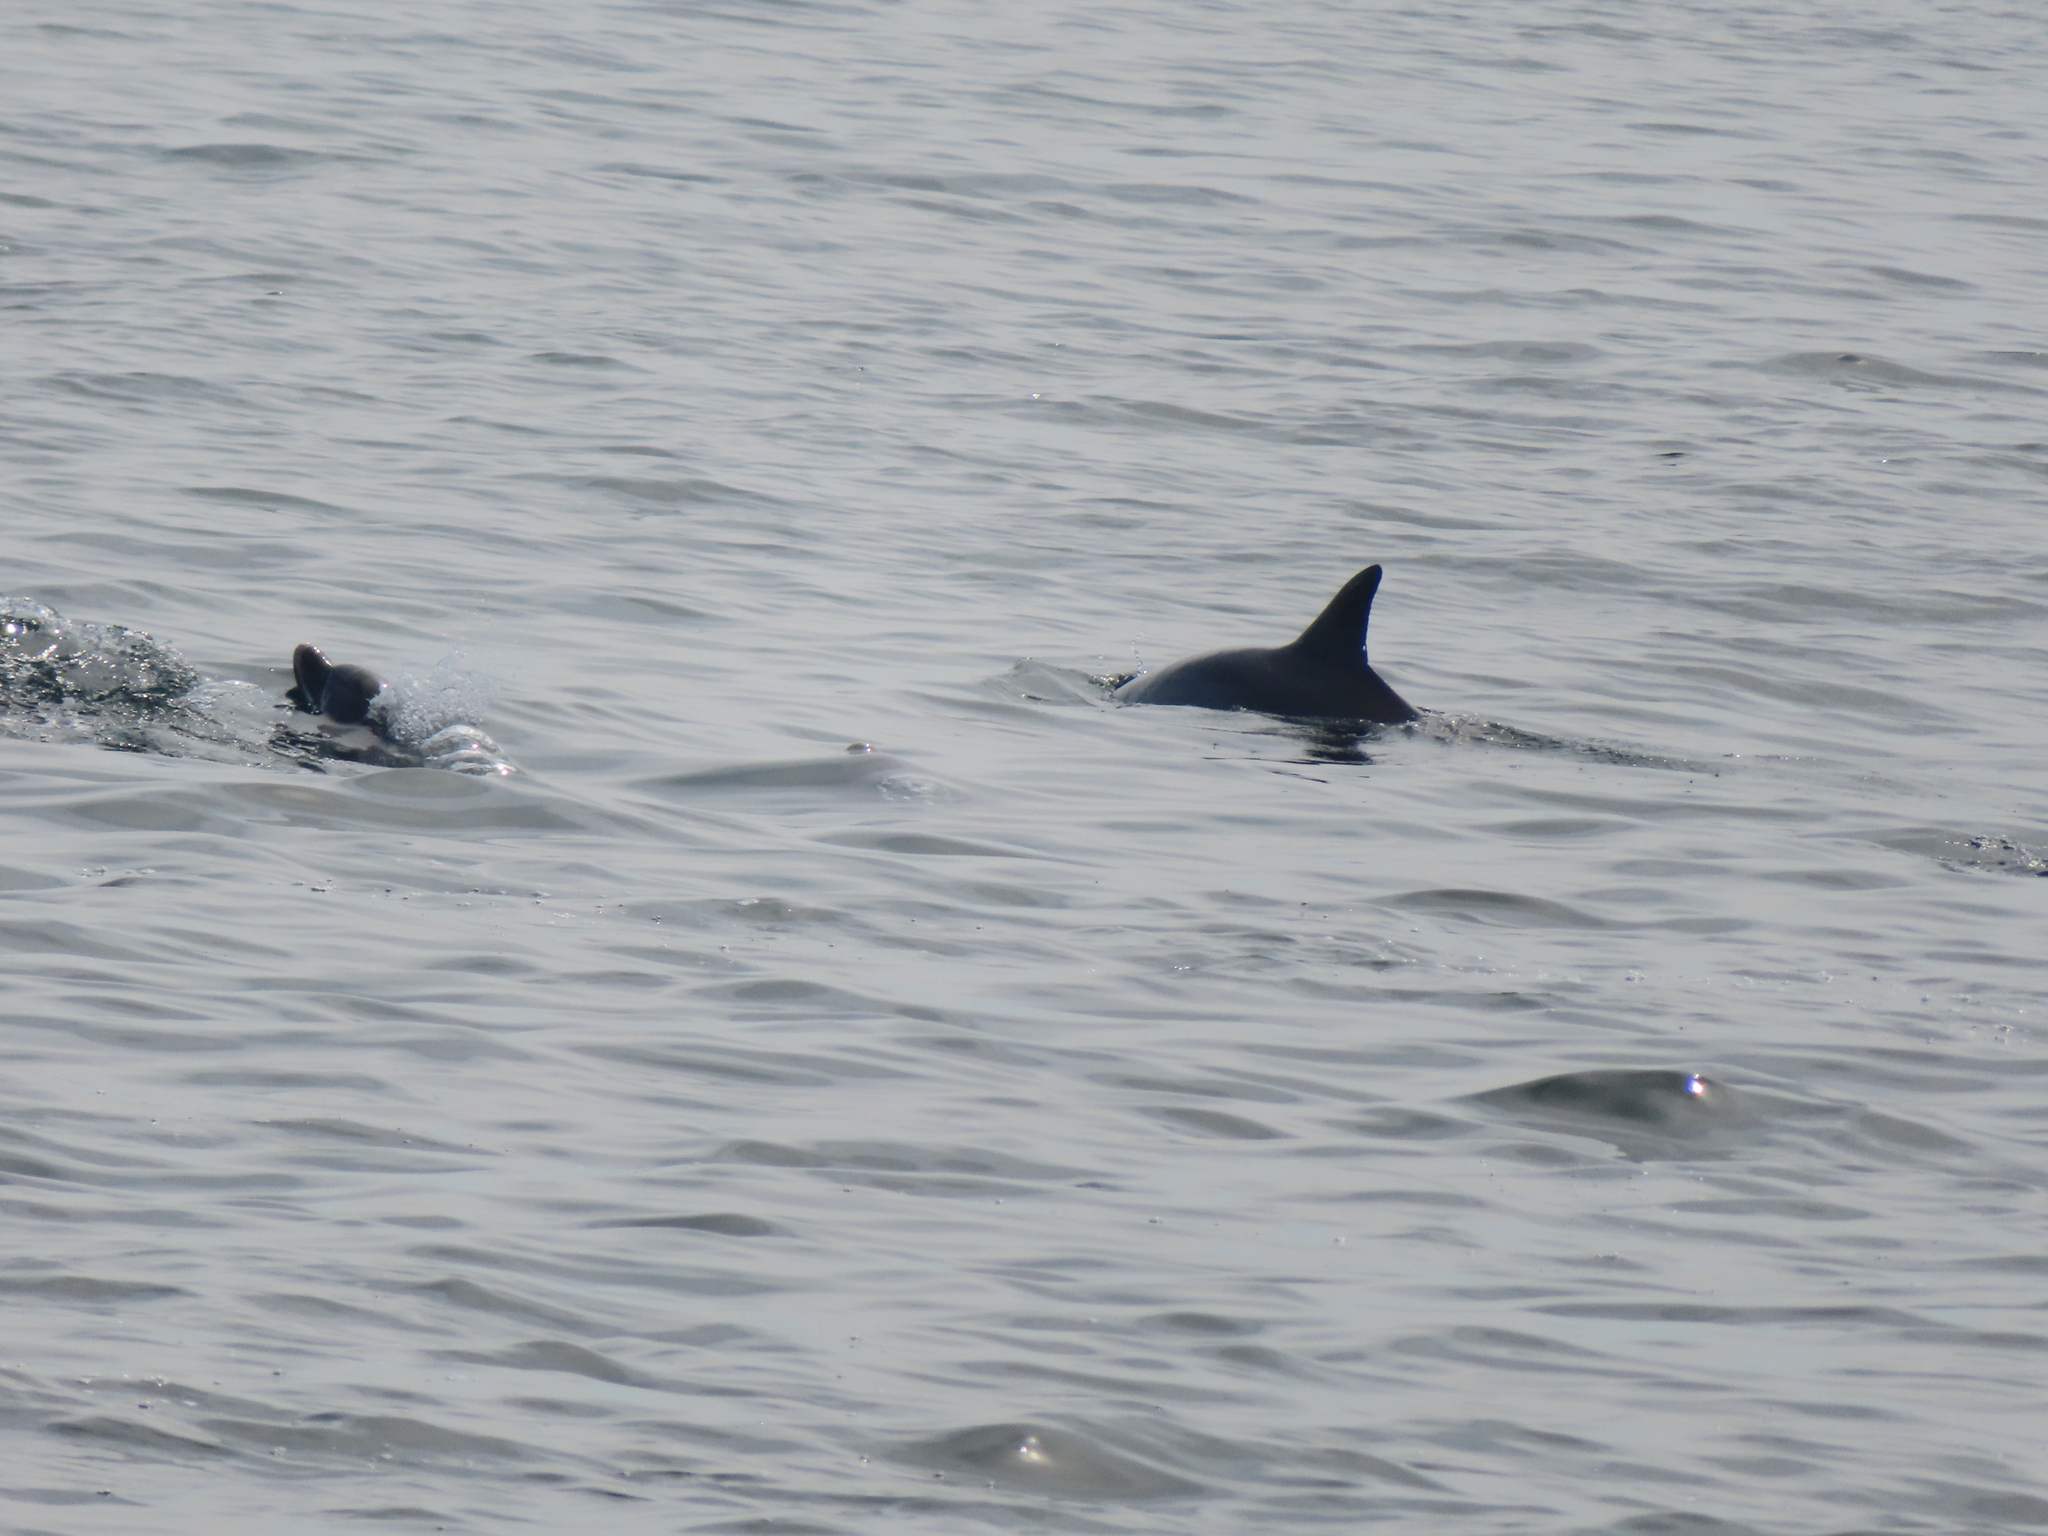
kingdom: Animalia
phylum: Chordata
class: Mammalia
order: Cetacea
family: Delphinidae
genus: Tursiops
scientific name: Tursiops truncatus
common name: Bottlenose dolphin
